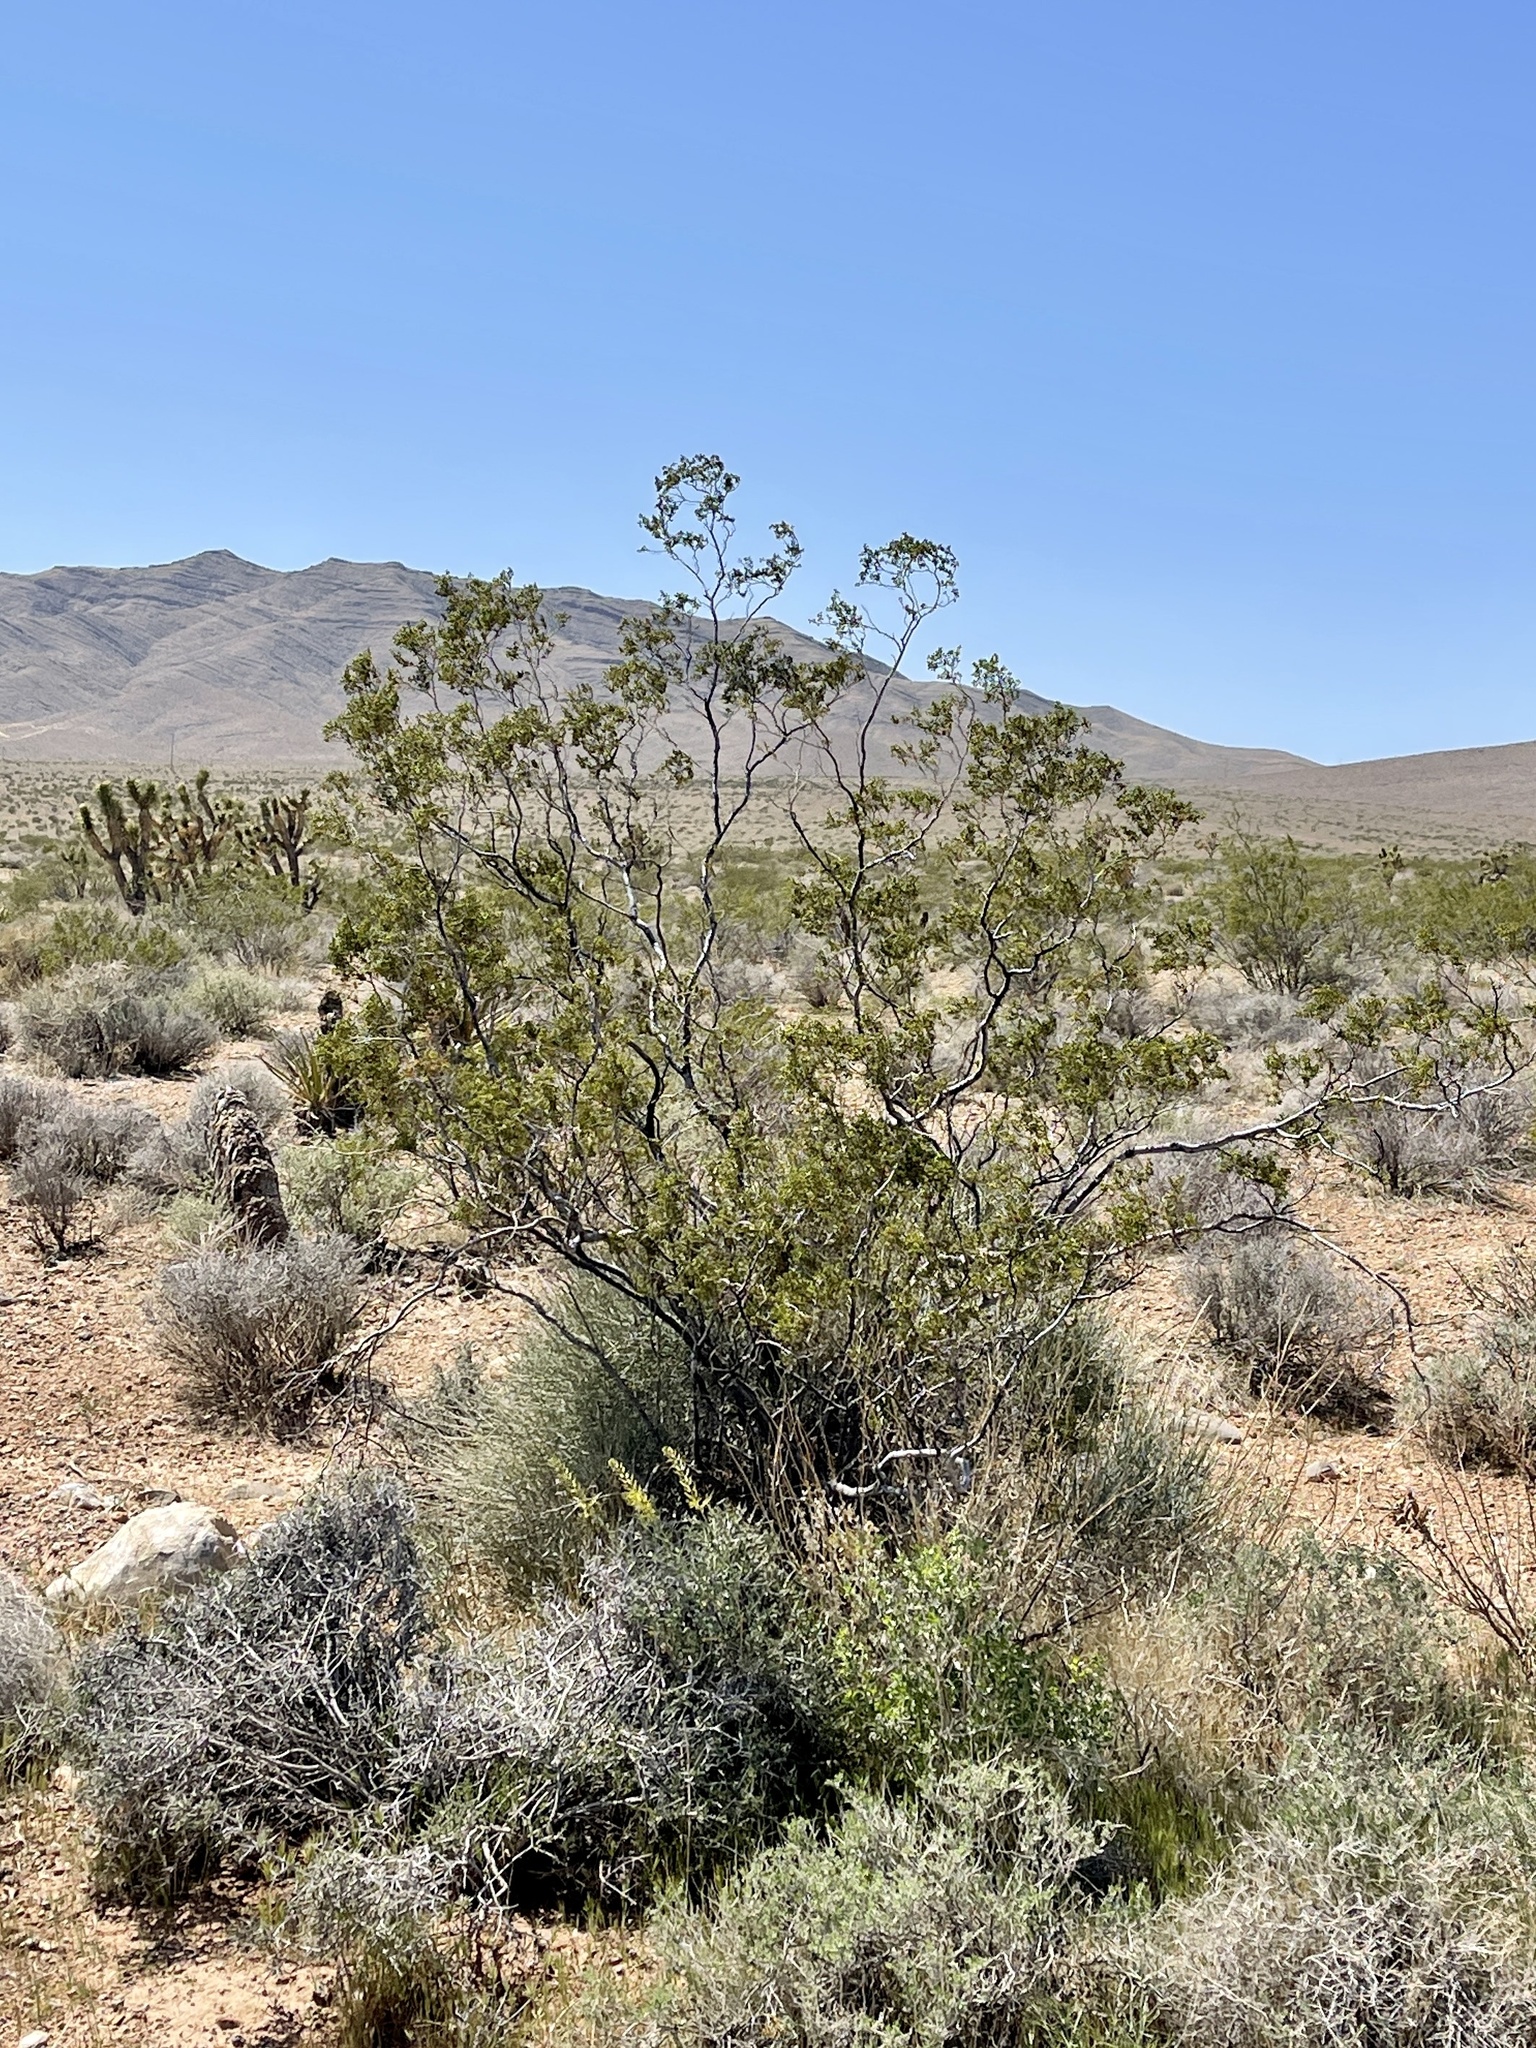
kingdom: Plantae
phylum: Tracheophyta
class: Magnoliopsida
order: Zygophyllales
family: Zygophyllaceae
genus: Larrea
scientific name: Larrea tridentata
